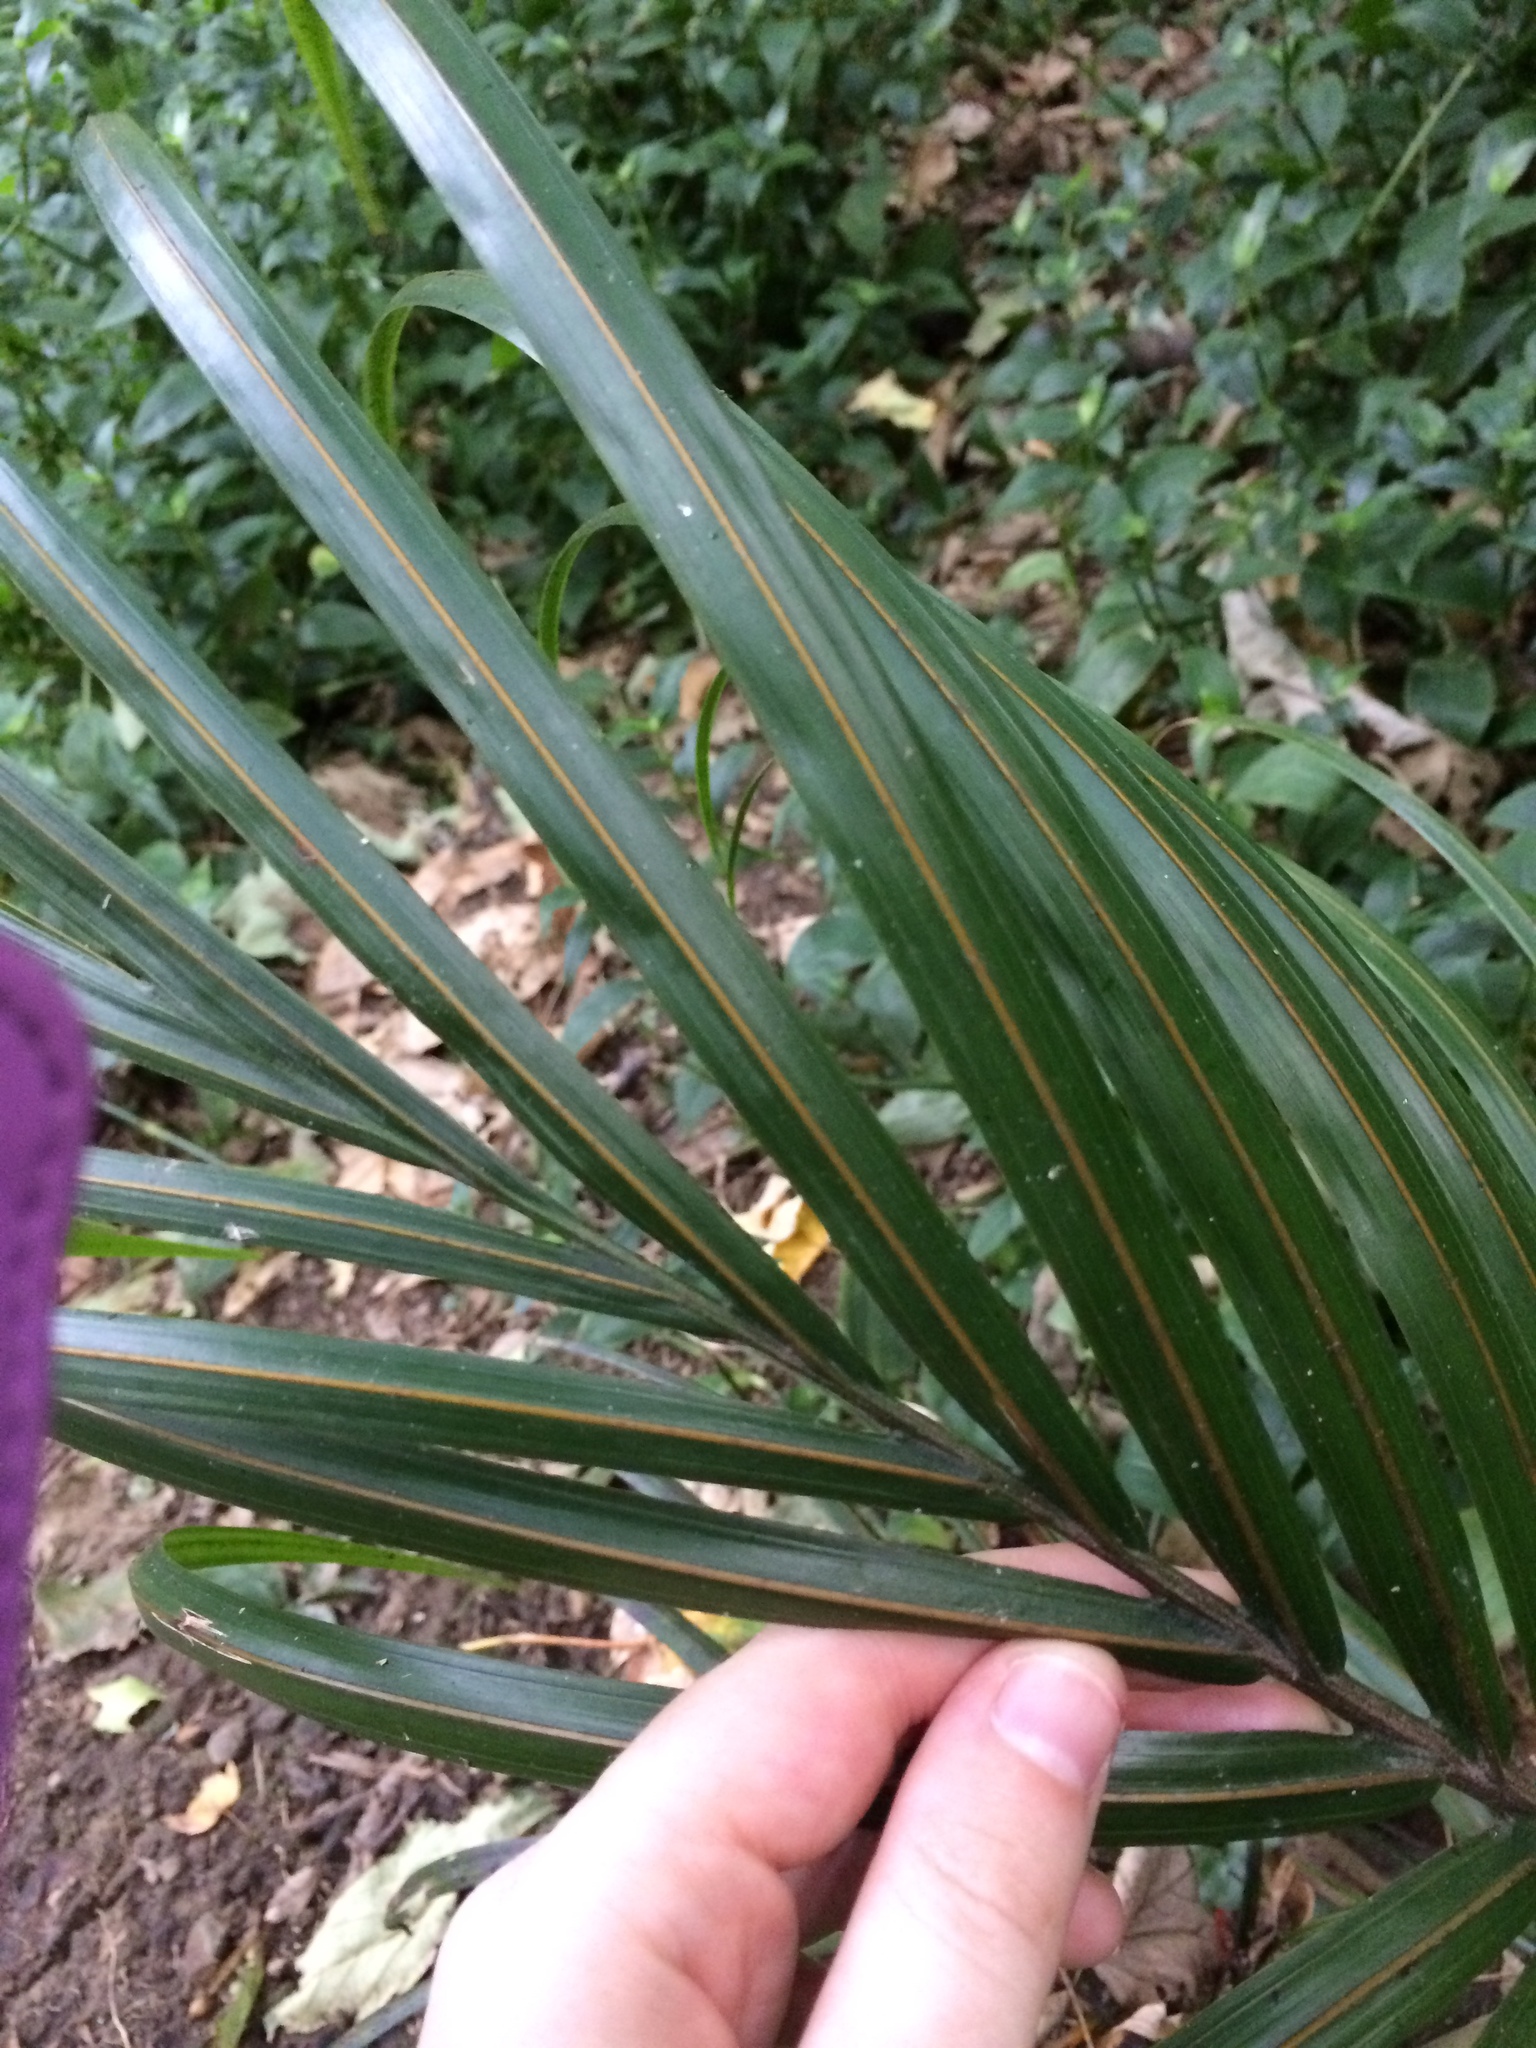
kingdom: Plantae
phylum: Tracheophyta
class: Liliopsida
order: Arecales
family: Arecaceae
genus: Rhopalostylis
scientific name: Rhopalostylis sapida
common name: Feather-duster palm
